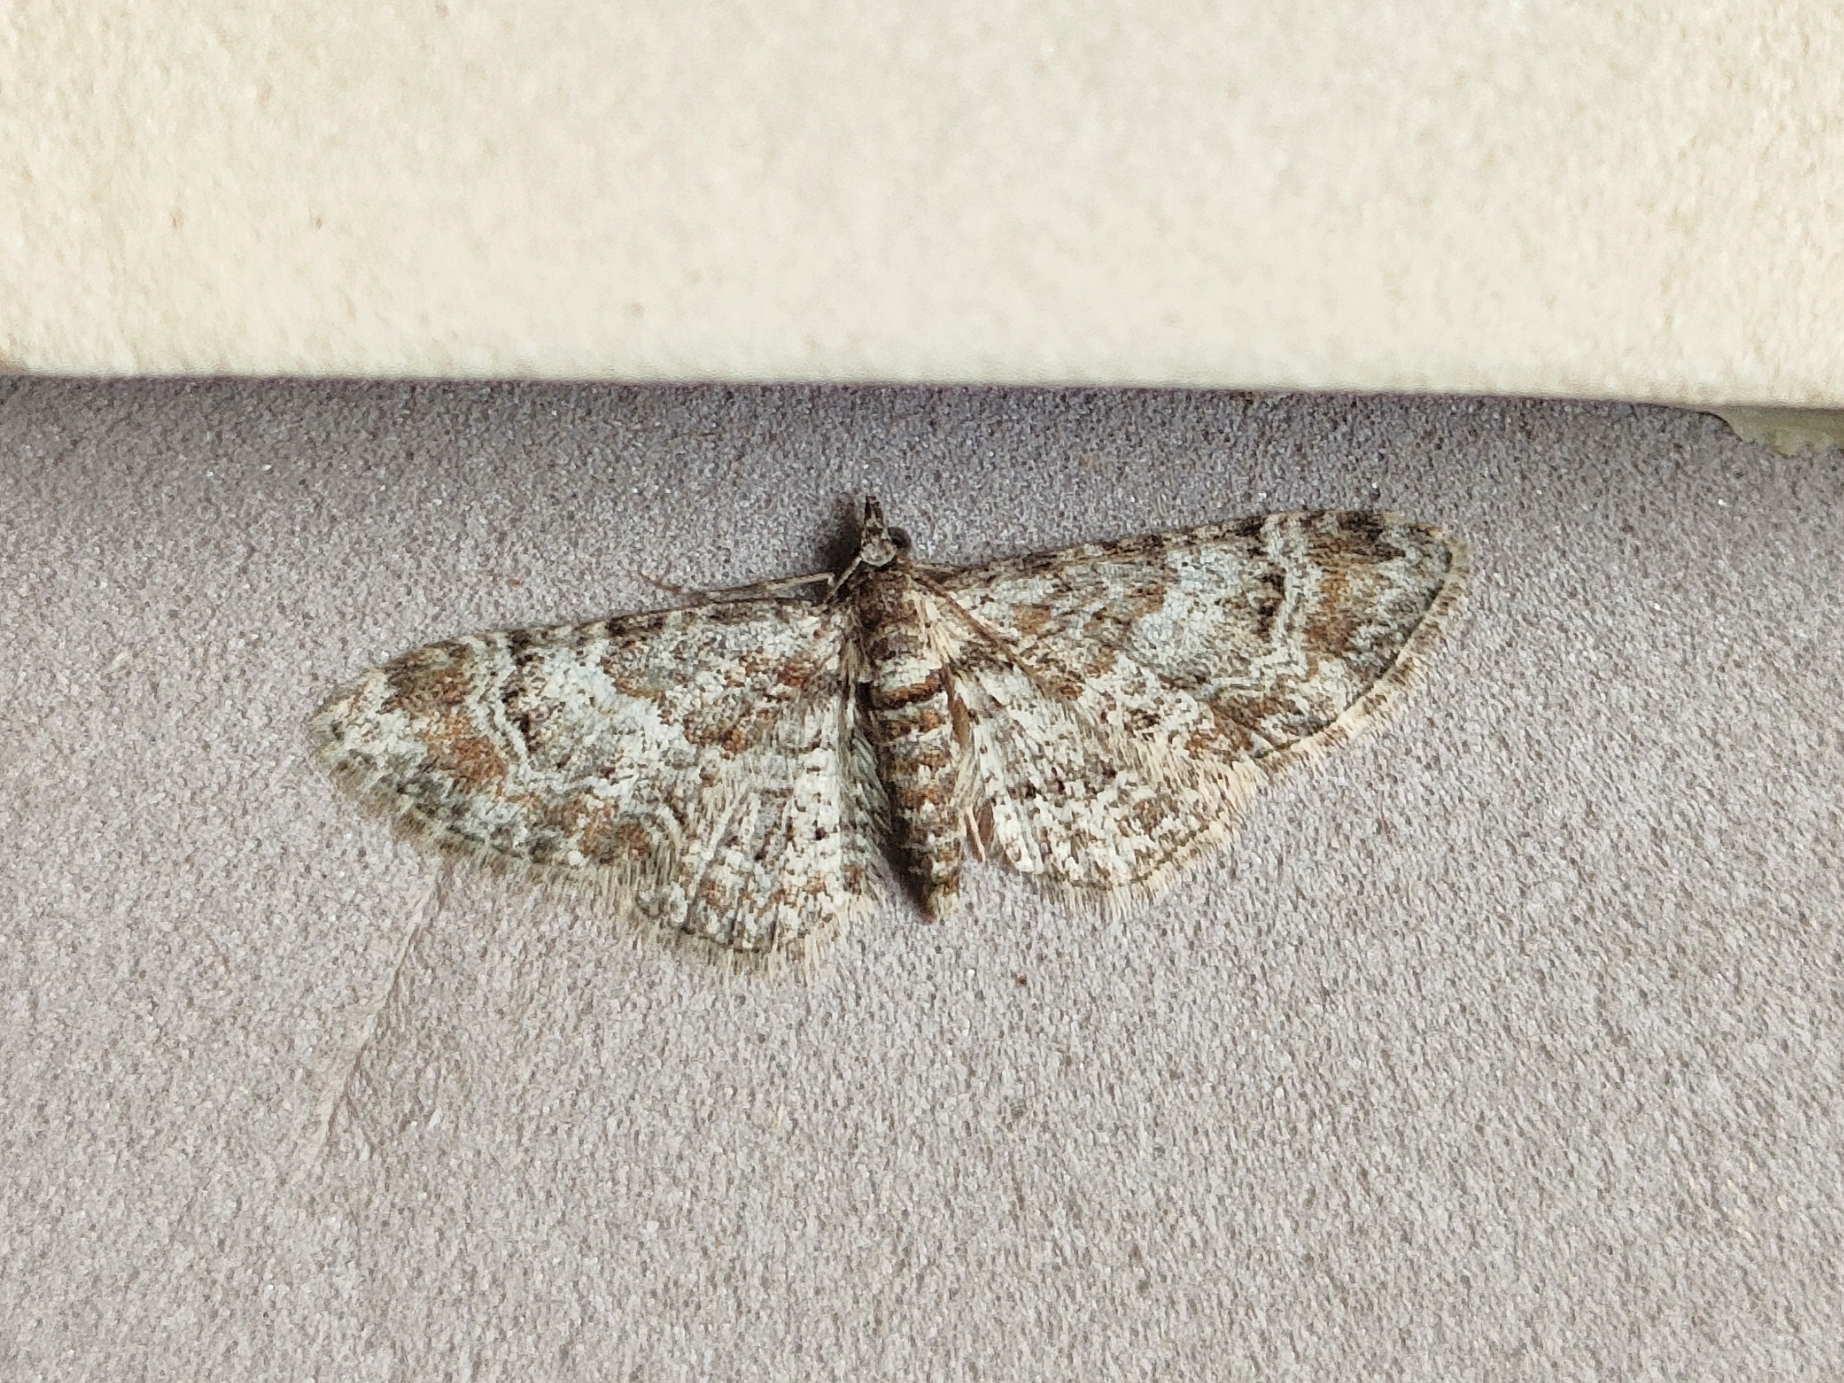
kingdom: Animalia
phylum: Arthropoda
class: Insecta
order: Lepidoptera
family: Geometridae
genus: Gymnoscelis
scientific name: Gymnoscelis rufifasciata
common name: Double-striped pug
